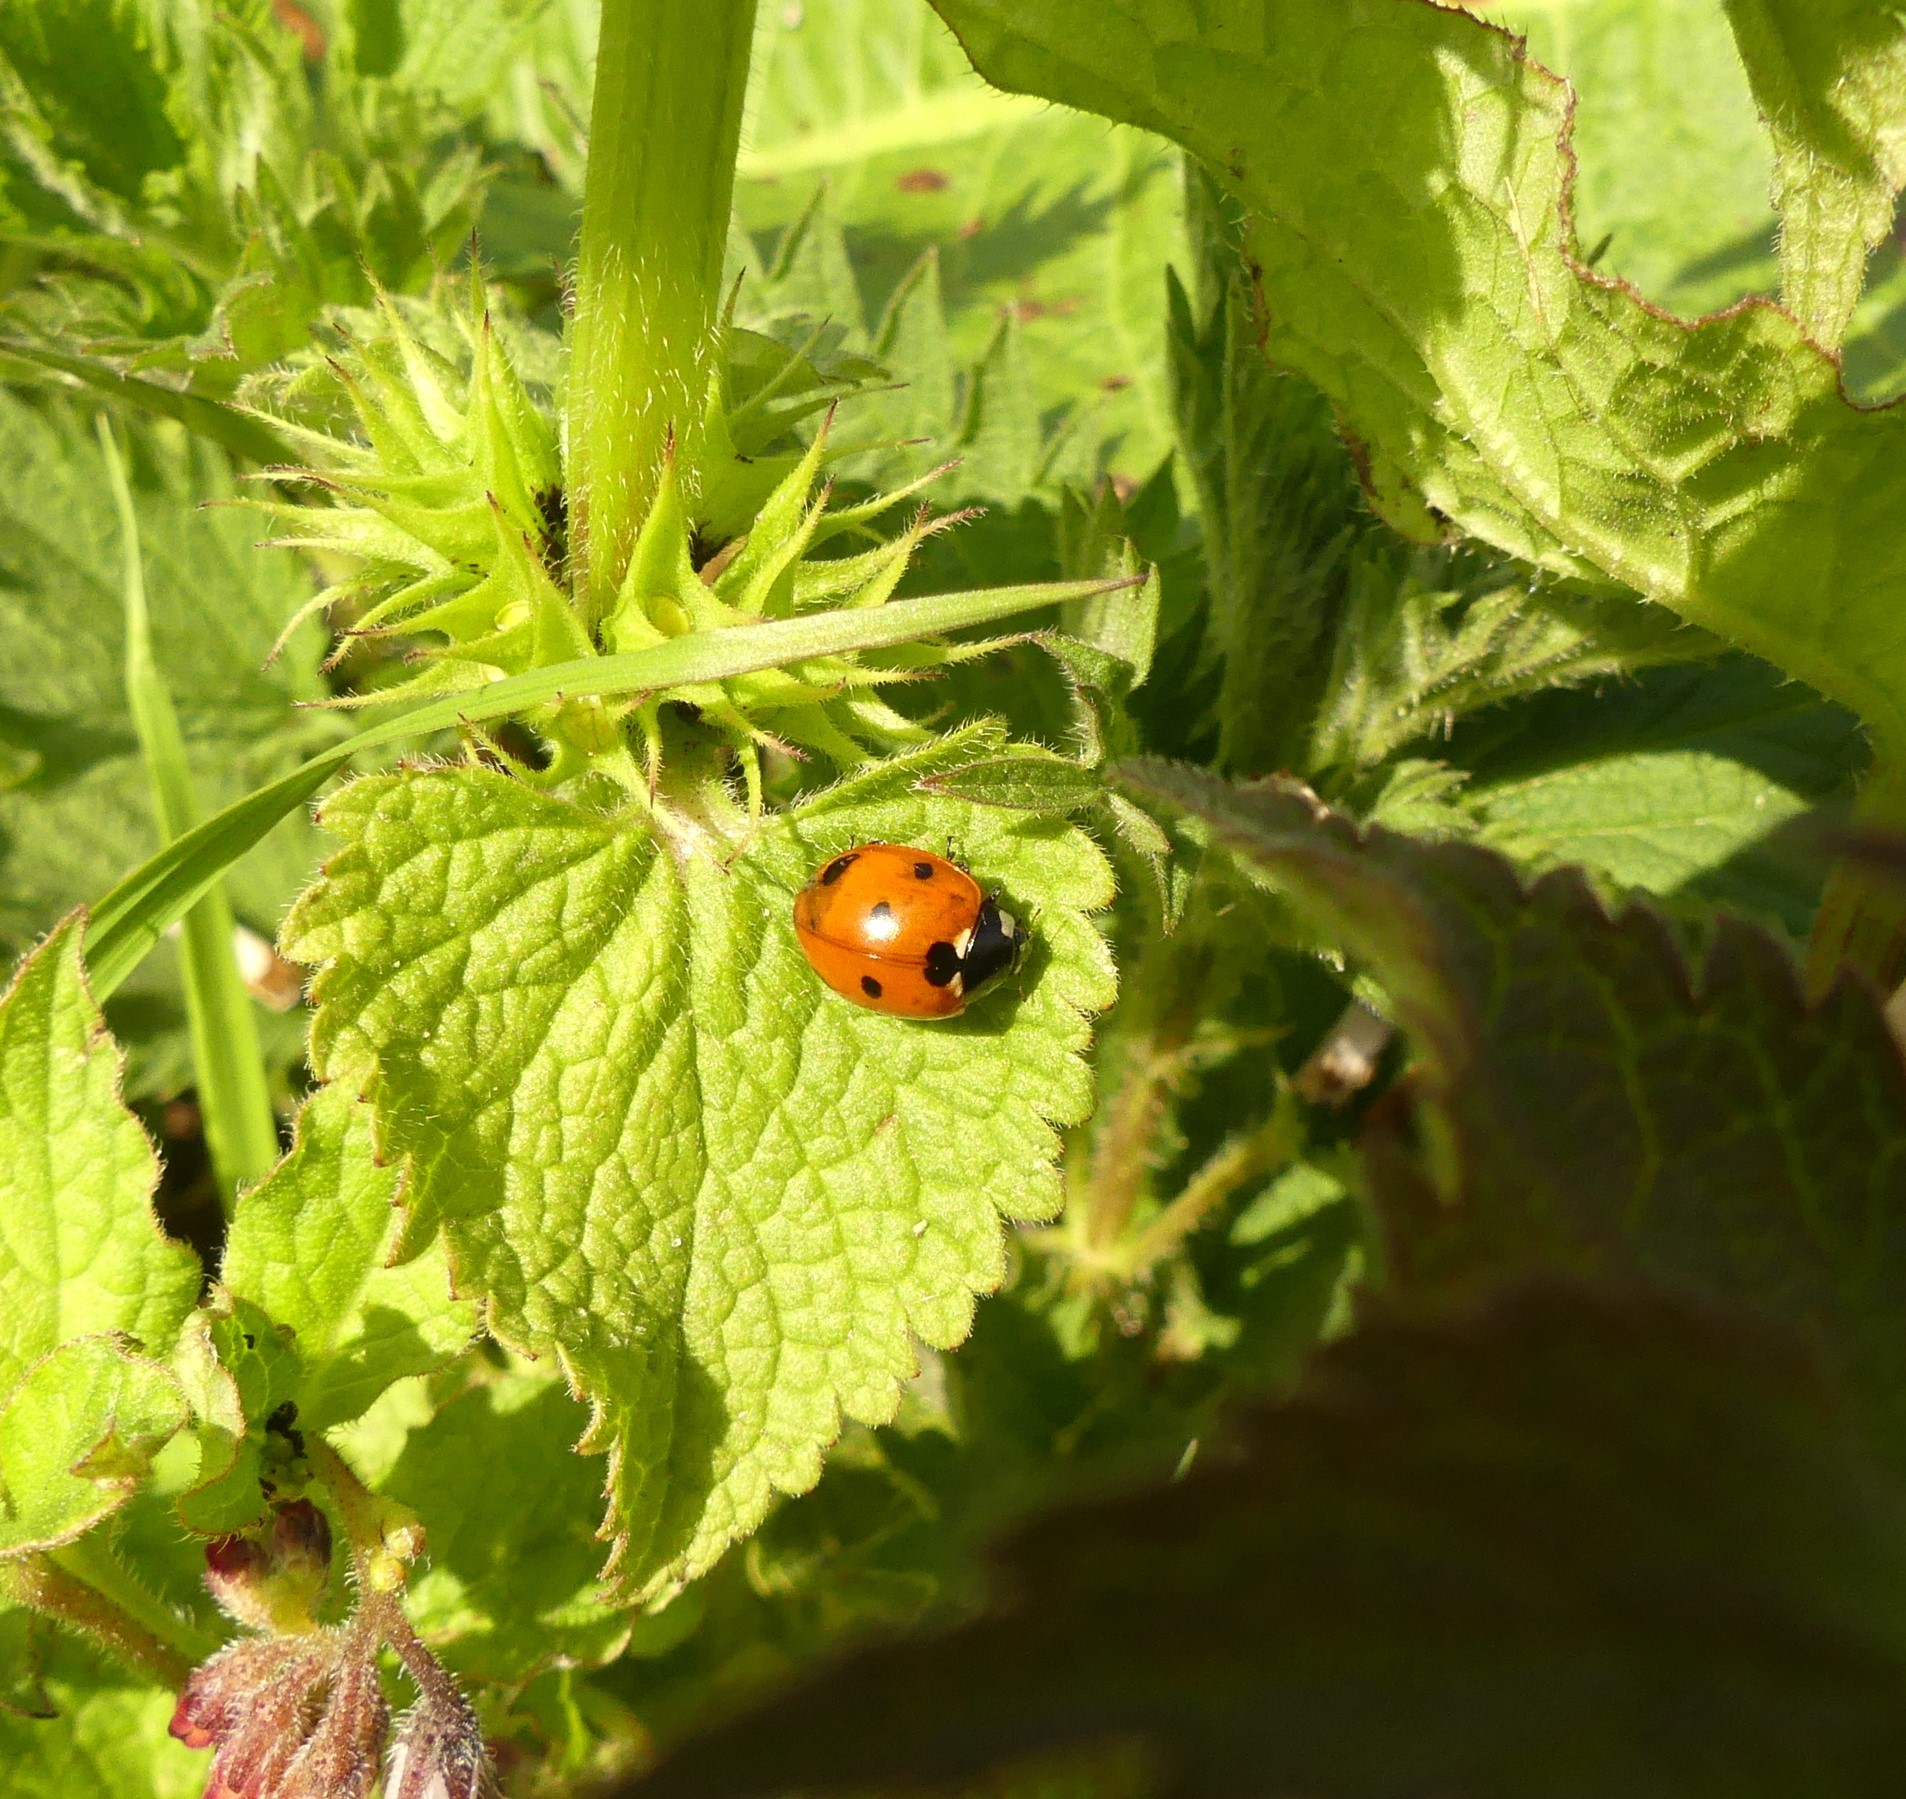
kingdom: Animalia
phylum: Arthropoda
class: Insecta
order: Coleoptera
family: Coccinellidae
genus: Coccinella
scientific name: Coccinella septempunctata
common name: Sevenspotted lady beetle
